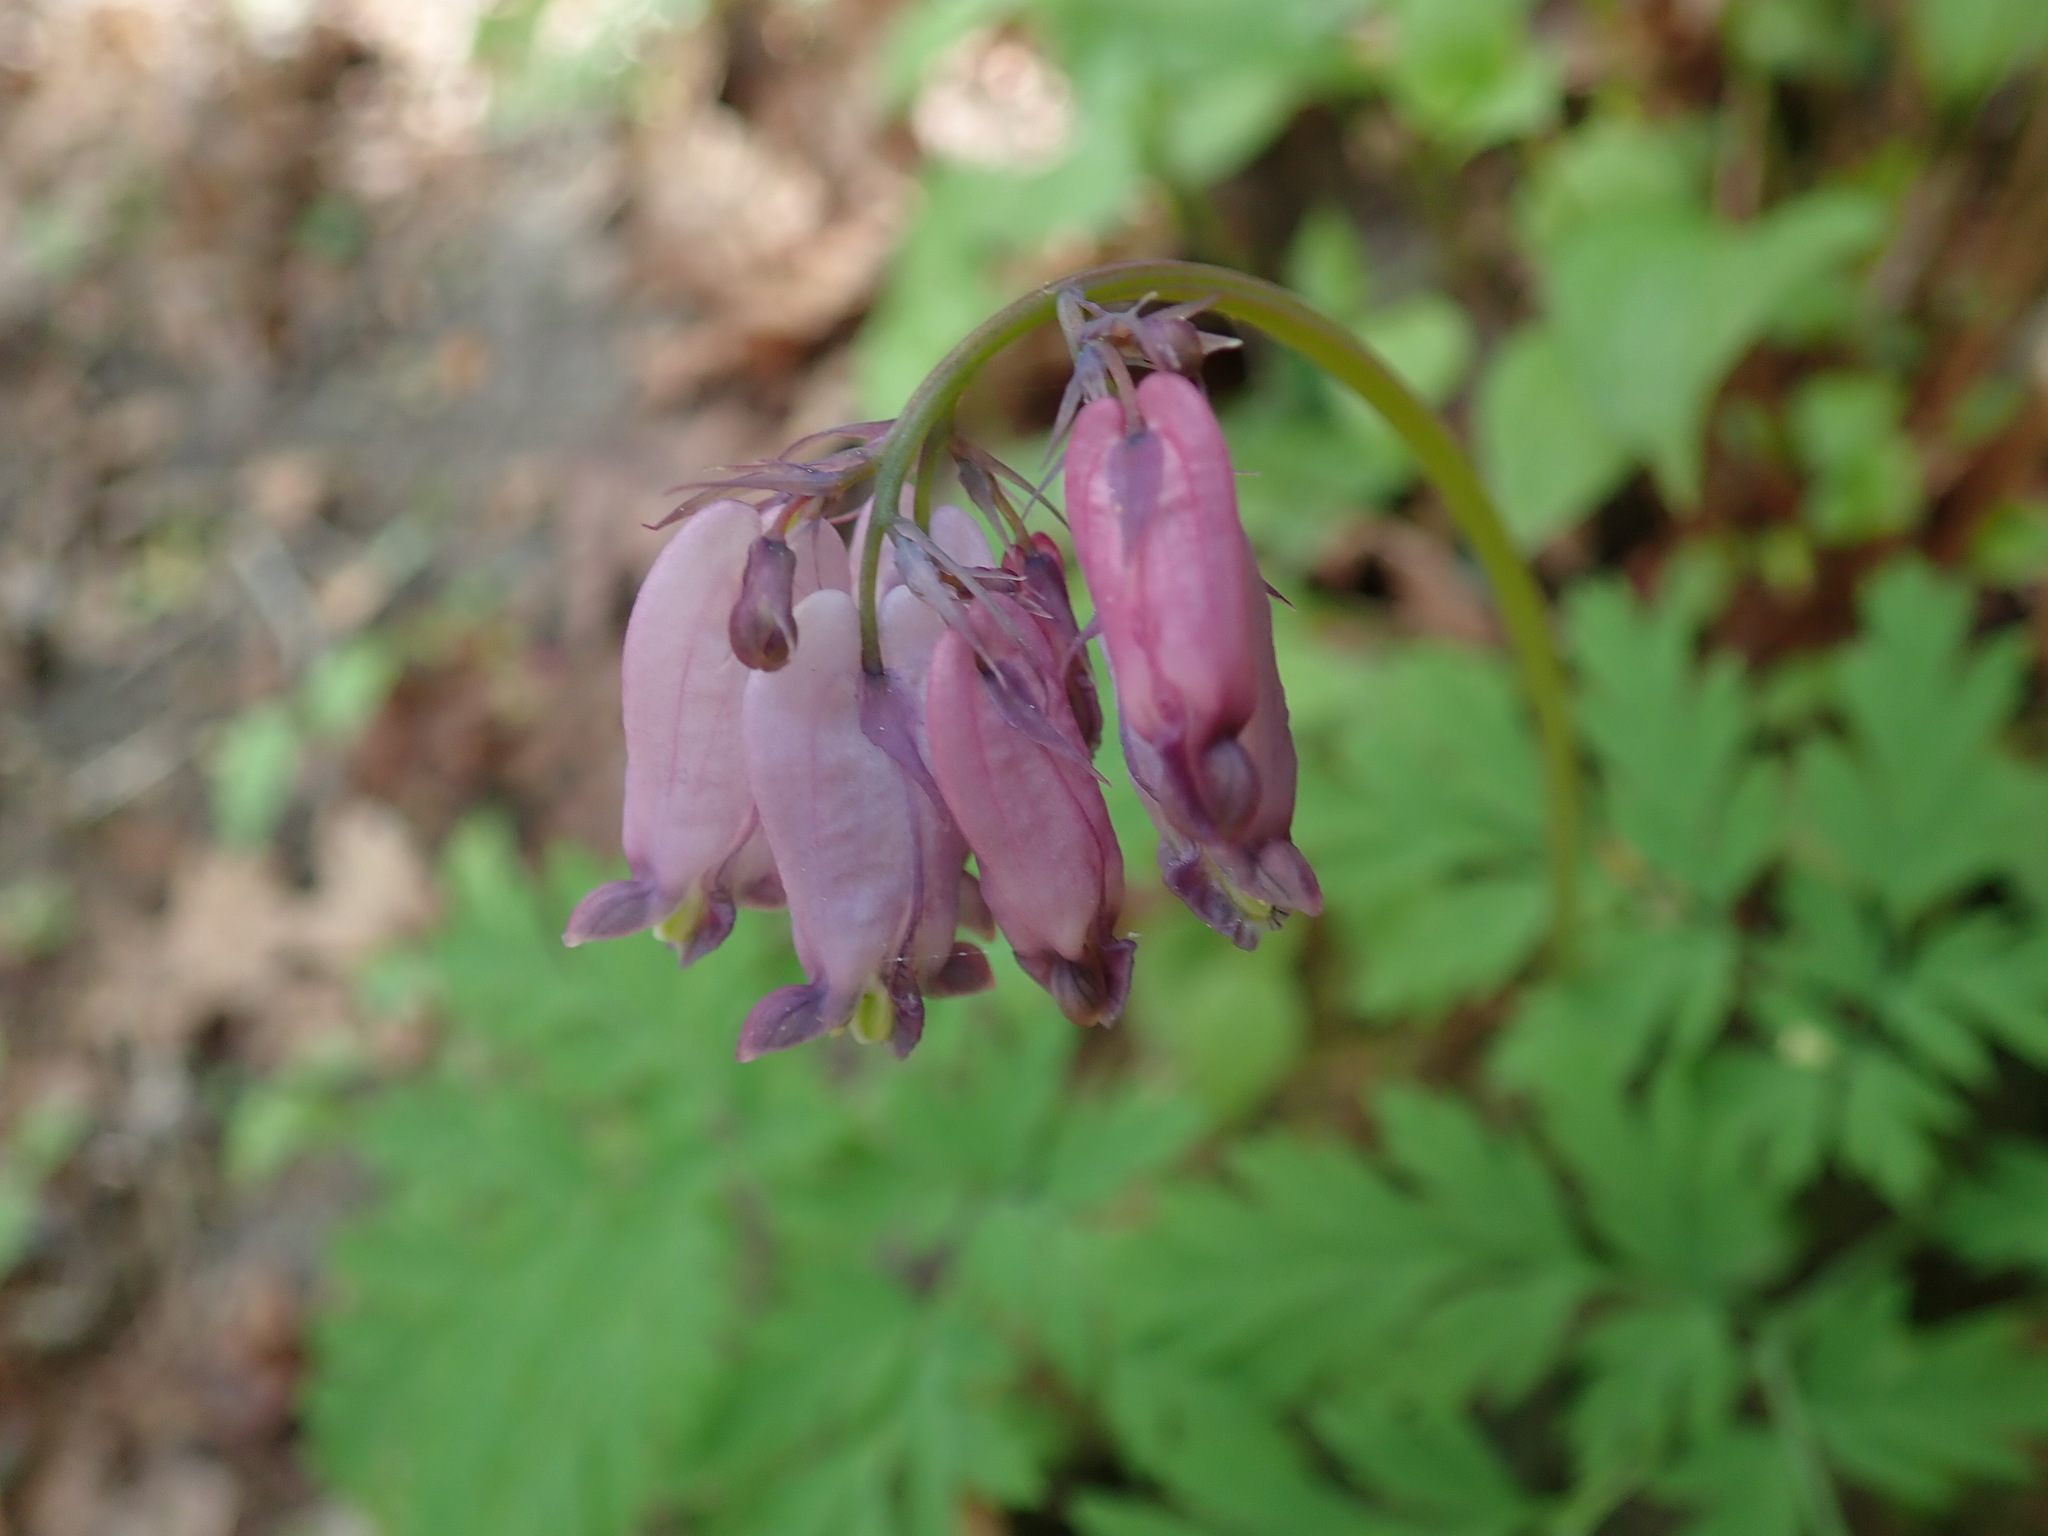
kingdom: Plantae
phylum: Tracheophyta
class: Magnoliopsida
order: Ranunculales
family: Papaveraceae
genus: Dicentra
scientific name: Dicentra formosa
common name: Bleeding-heart
